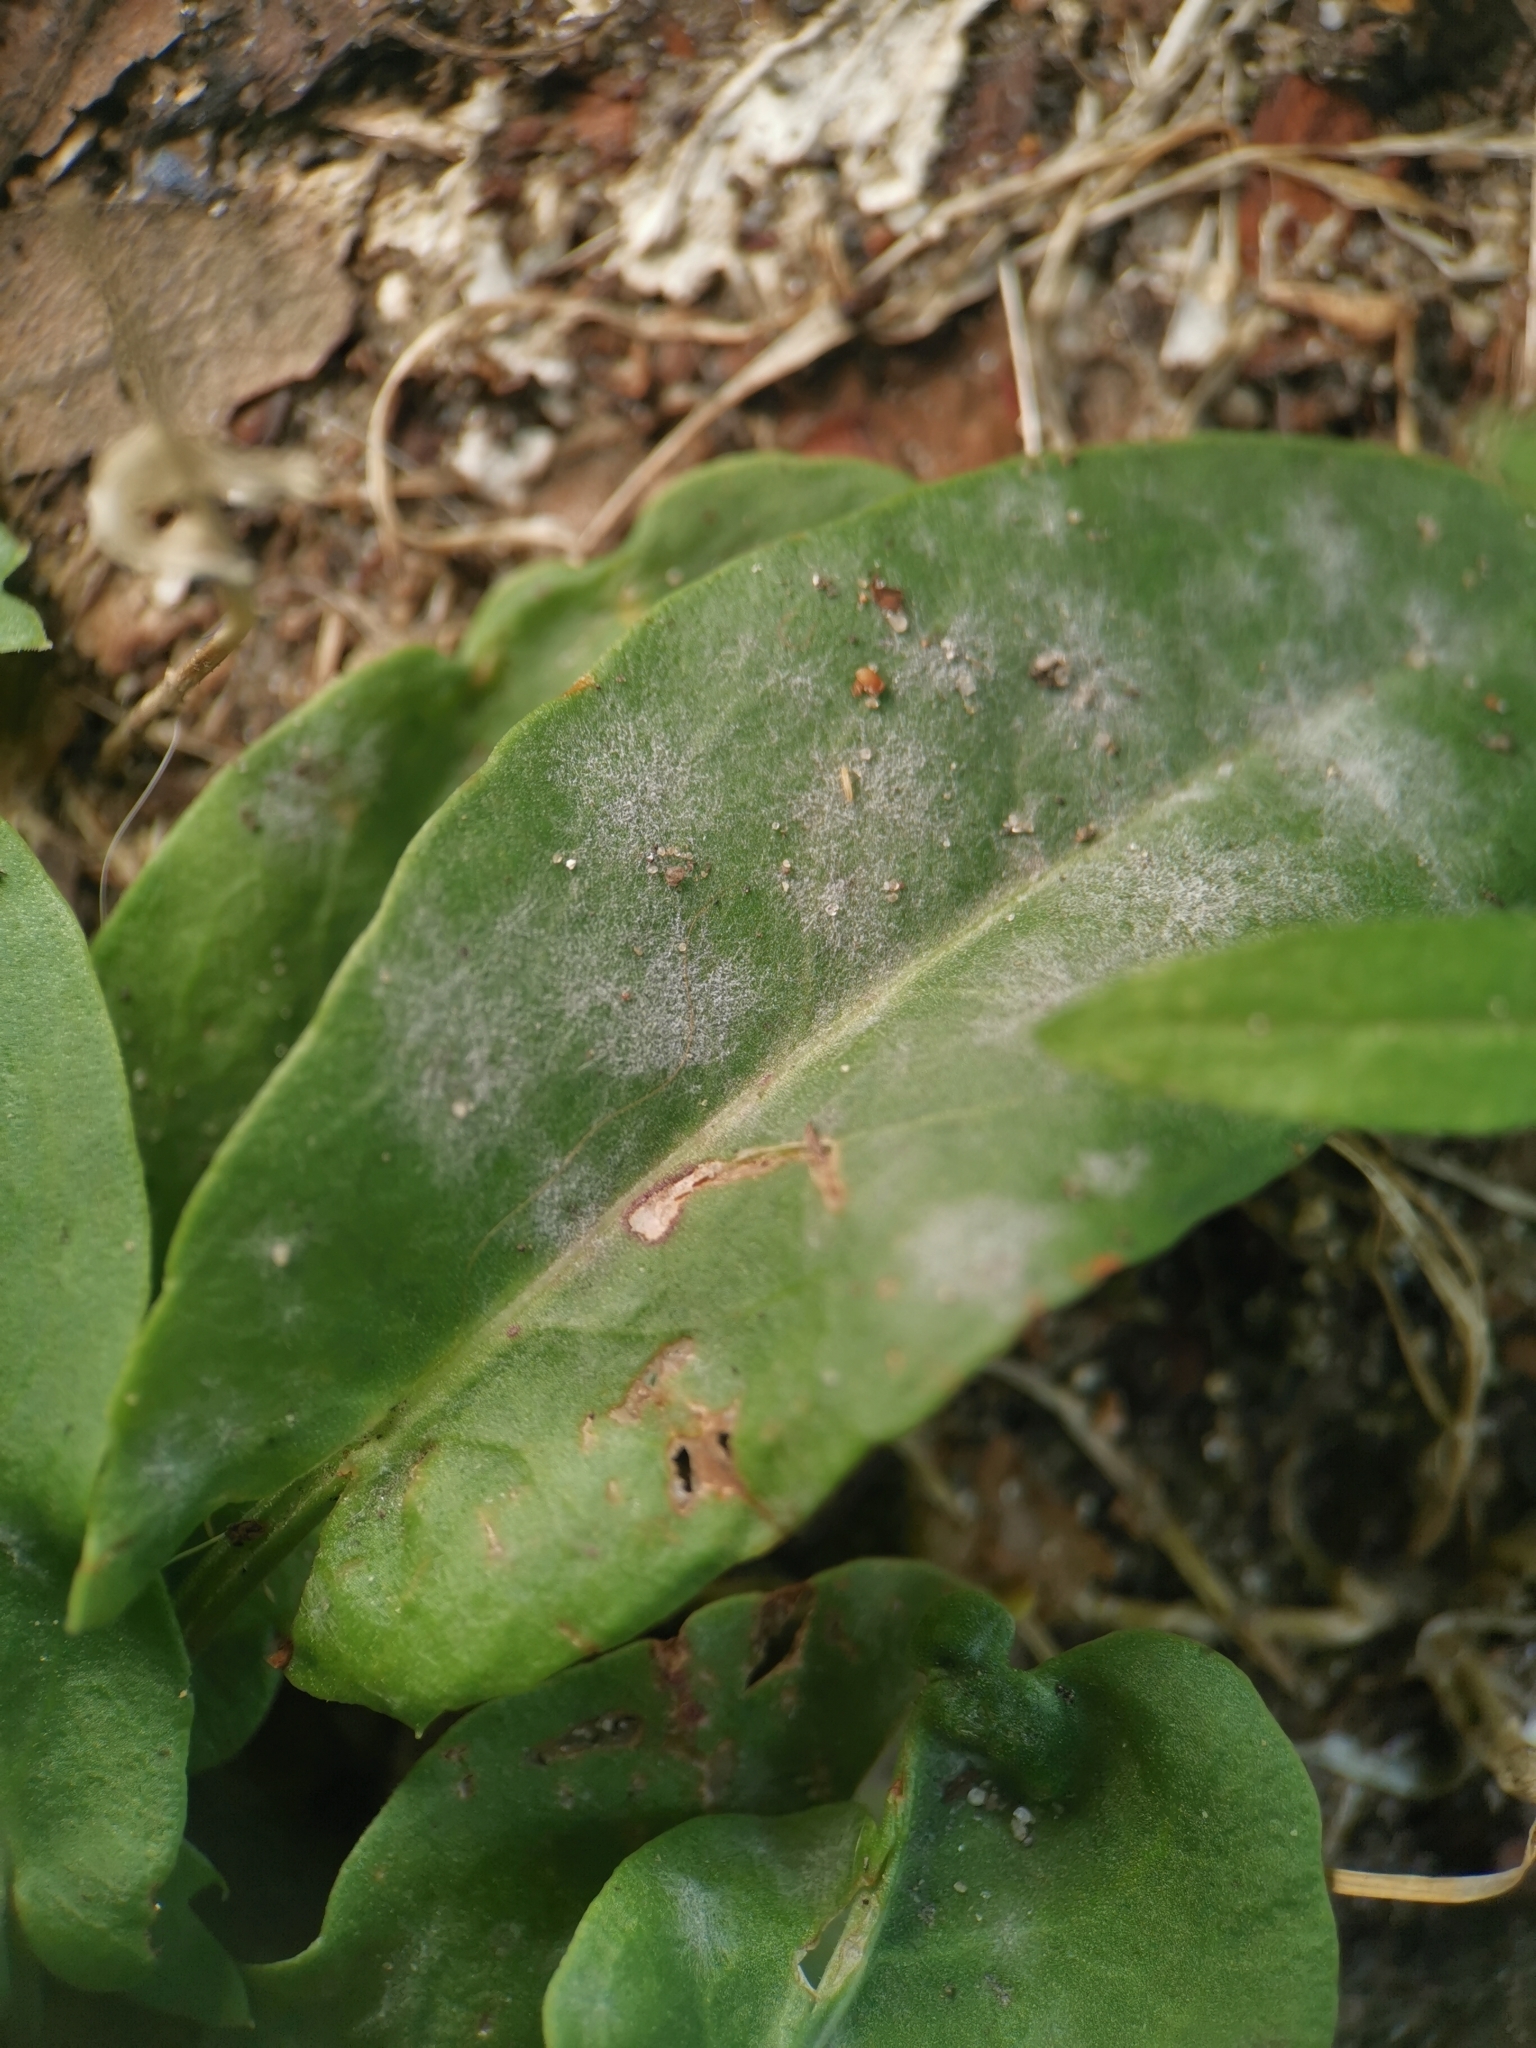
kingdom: Fungi
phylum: Ascomycota
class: Leotiomycetes
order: Helotiales
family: Erysiphaceae
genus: Erysiphe
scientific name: Erysiphe polygoni
